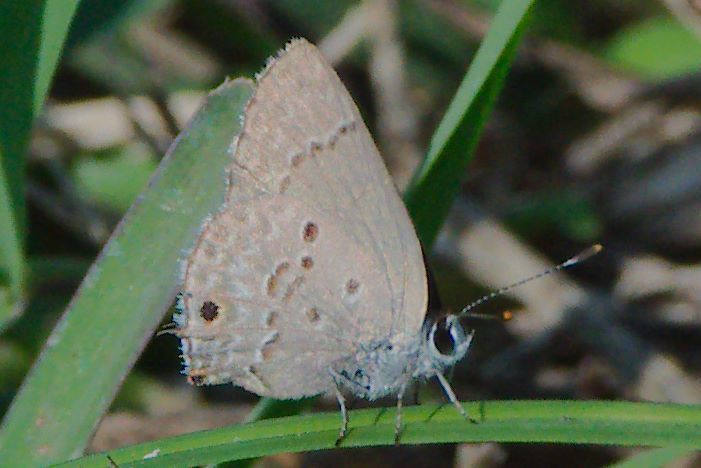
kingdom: Animalia
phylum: Arthropoda
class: Insecta
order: Lepidoptera
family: Lycaenidae
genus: Callicista
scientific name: Callicista columella
